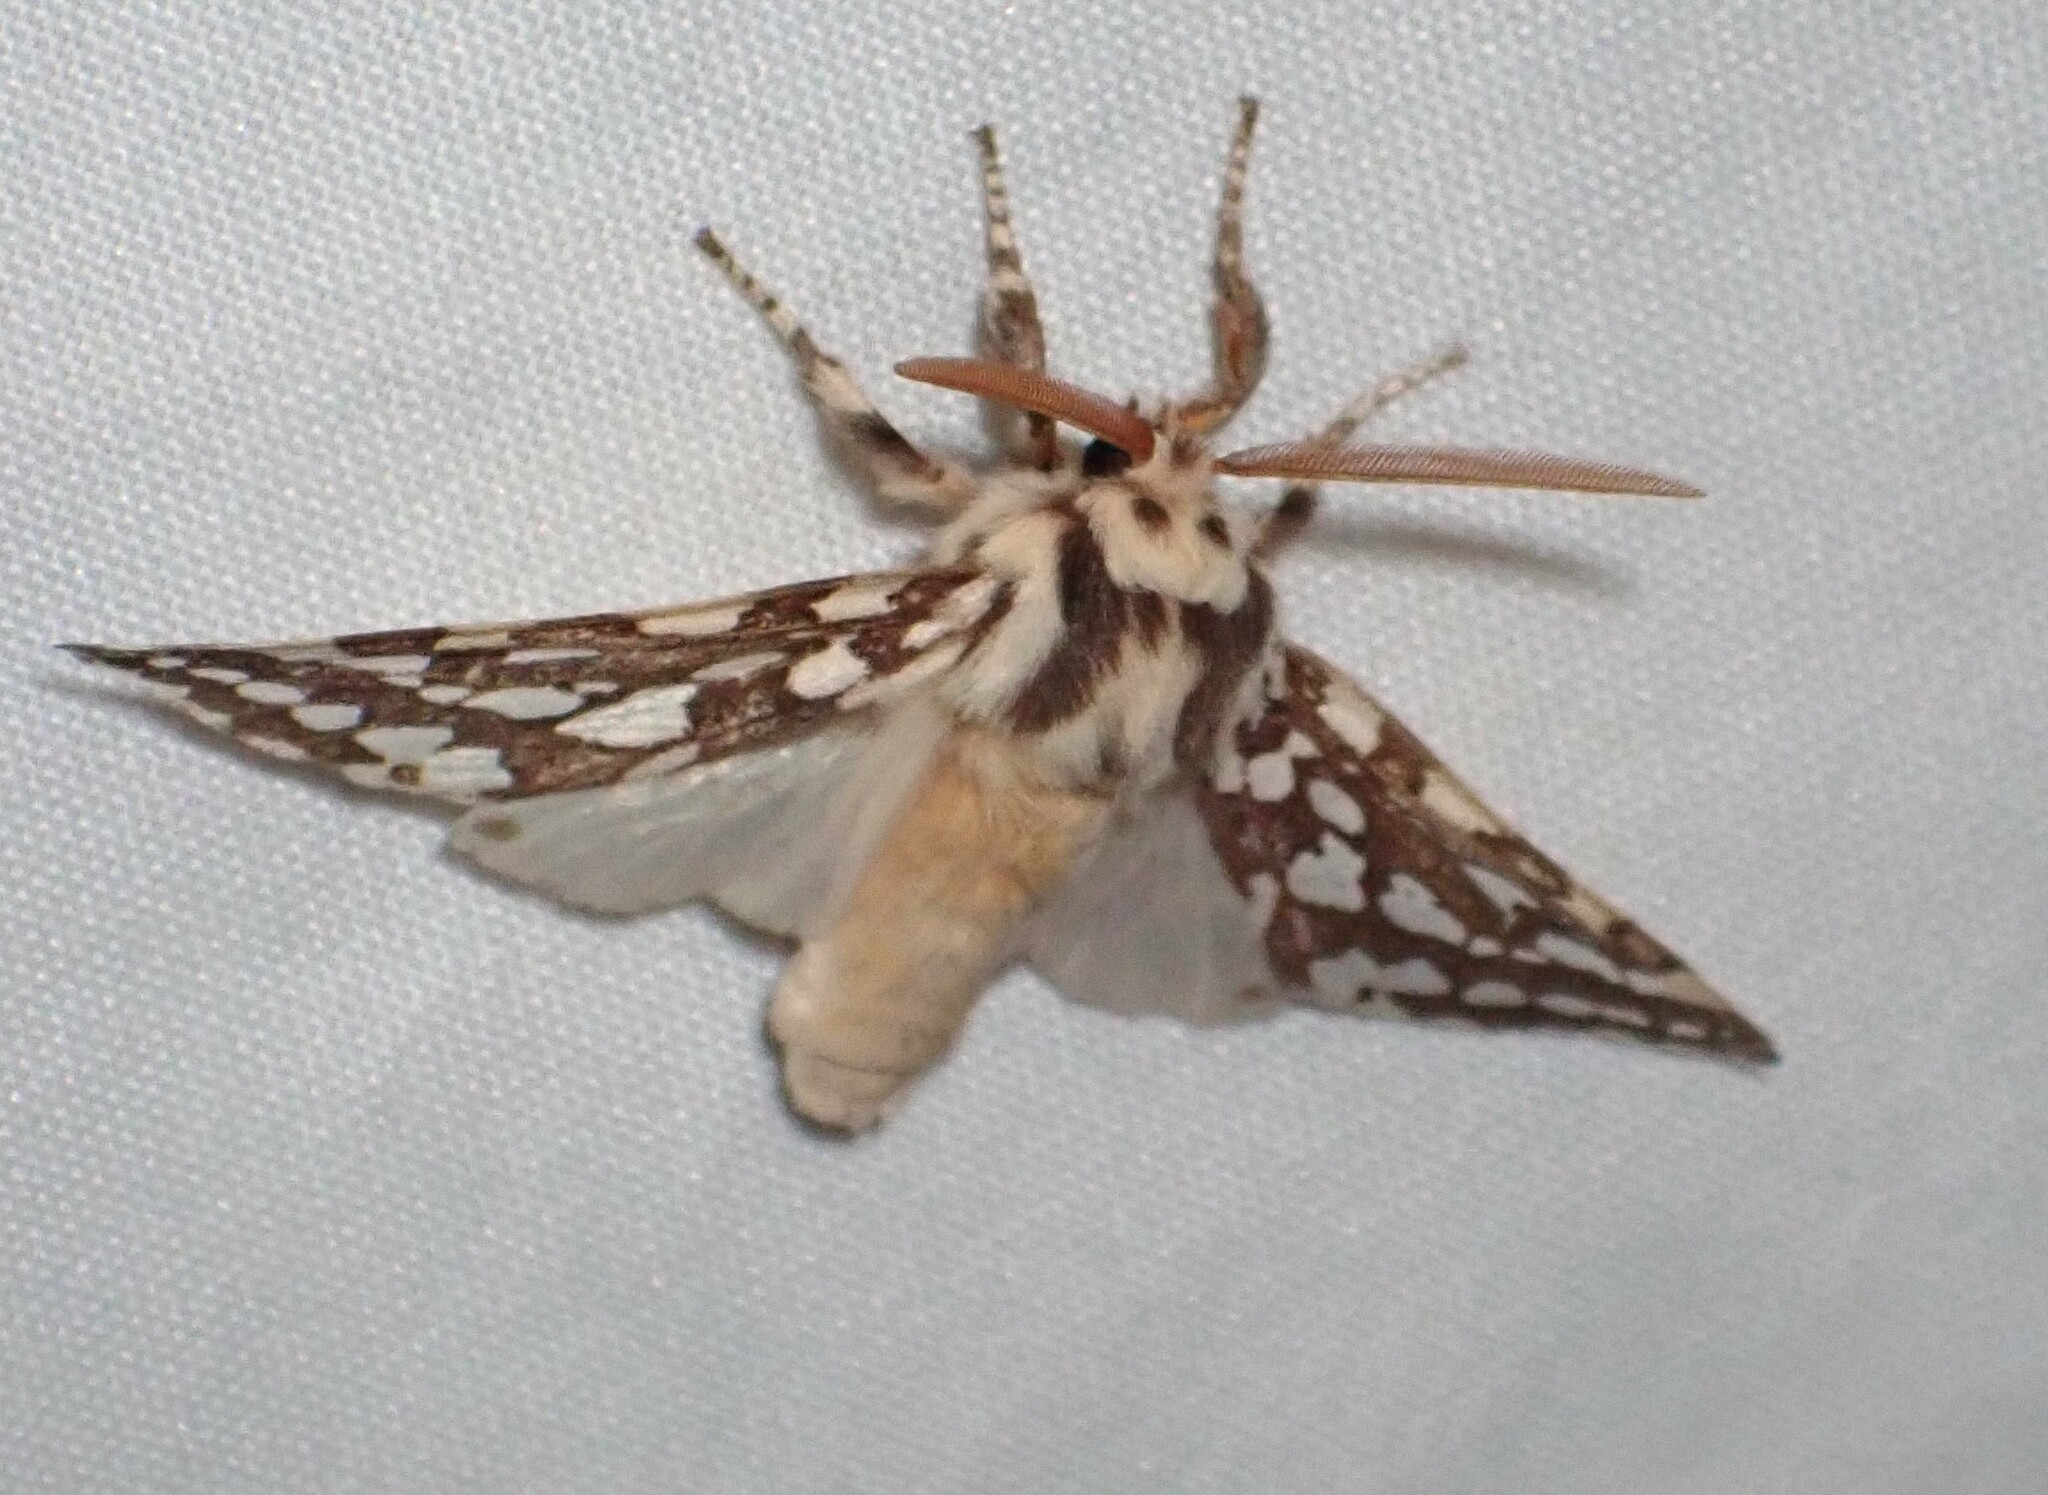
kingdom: Animalia
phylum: Arthropoda
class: Insecta
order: Lepidoptera
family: Erebidae
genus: Lophocampa
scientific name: Lophocampa argentata
